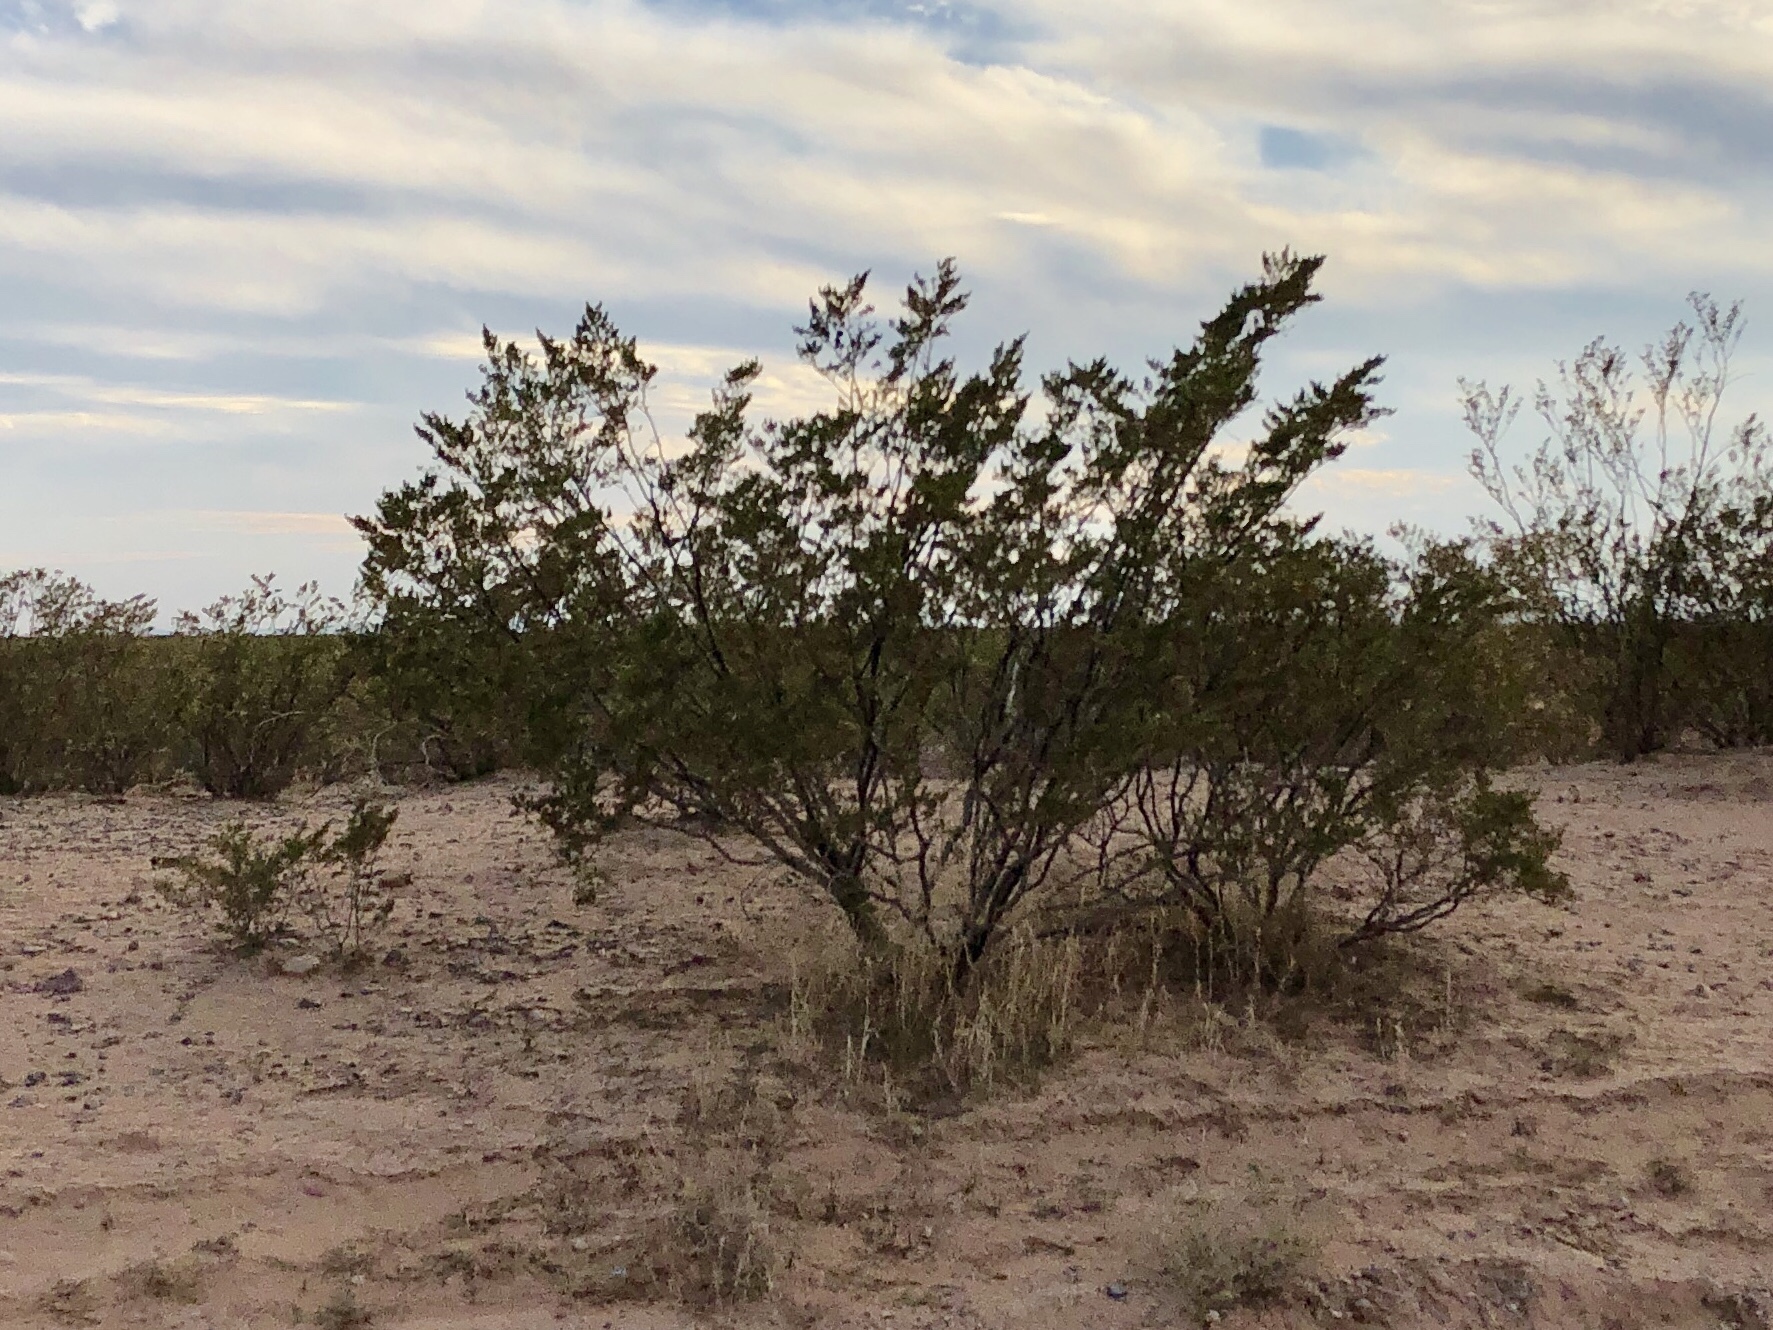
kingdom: Plantae
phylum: Tracheophyta
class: Magnoliopsida
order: Zygophyllales
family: Zygophyllaceae
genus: Larrea
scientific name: Larrea tridentata
